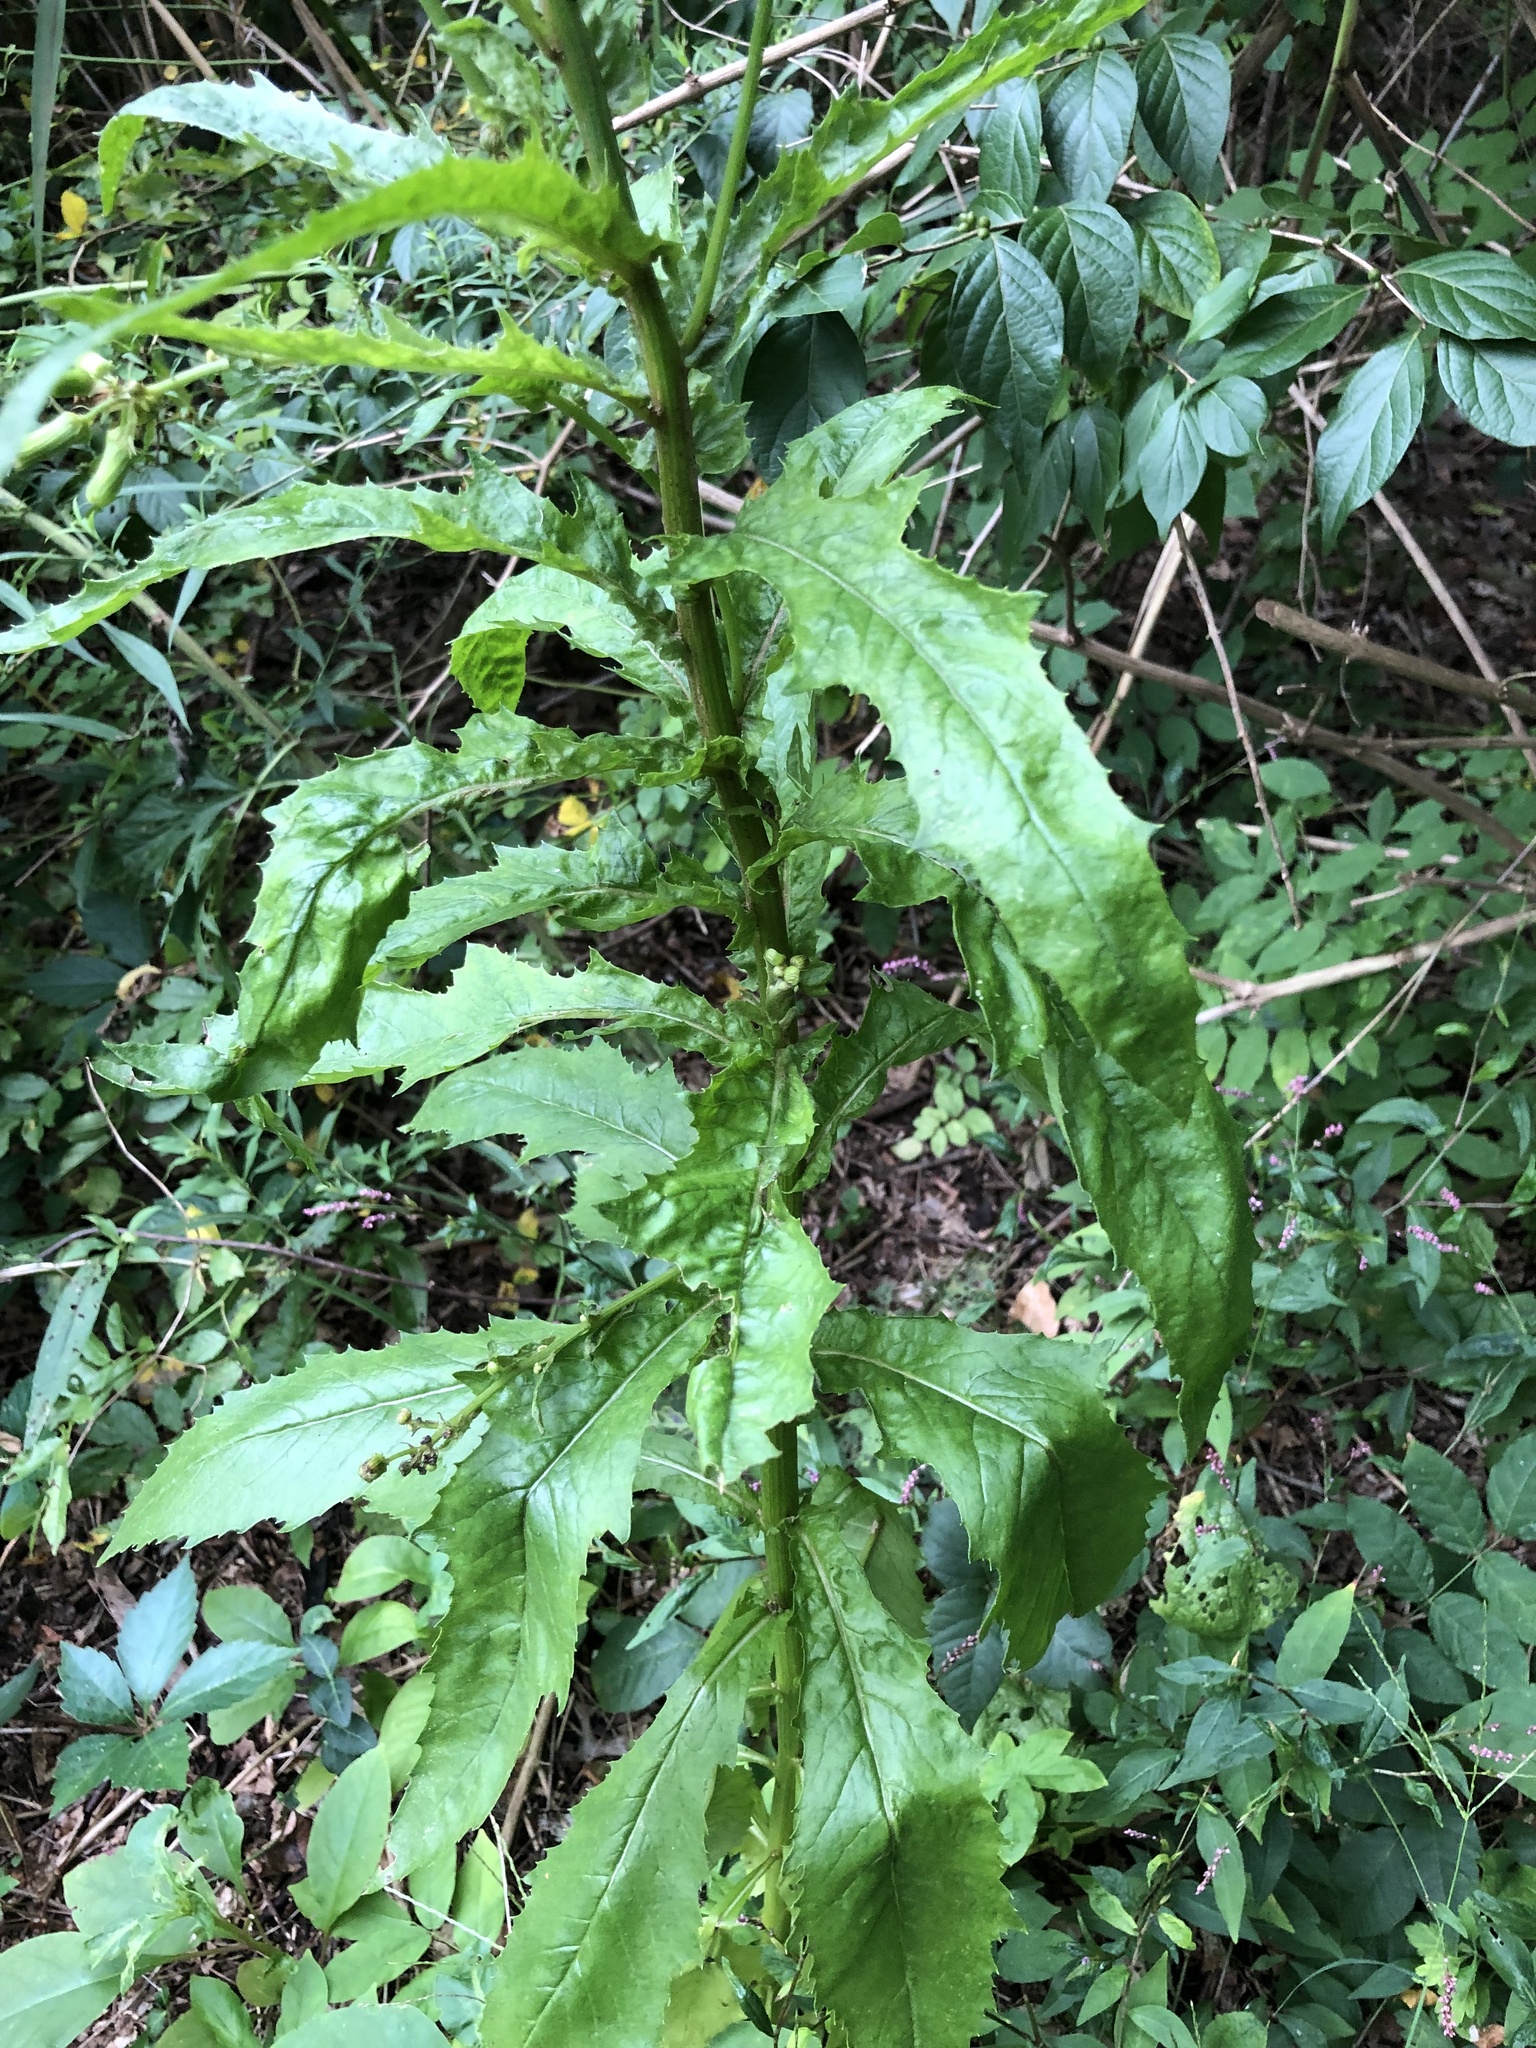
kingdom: Plantae
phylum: Tracheophyta
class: Magnoliopsida
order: Asterales
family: Asteraceae
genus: Erechtites
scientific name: Erechtites hieraciifolius
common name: American burnweed
